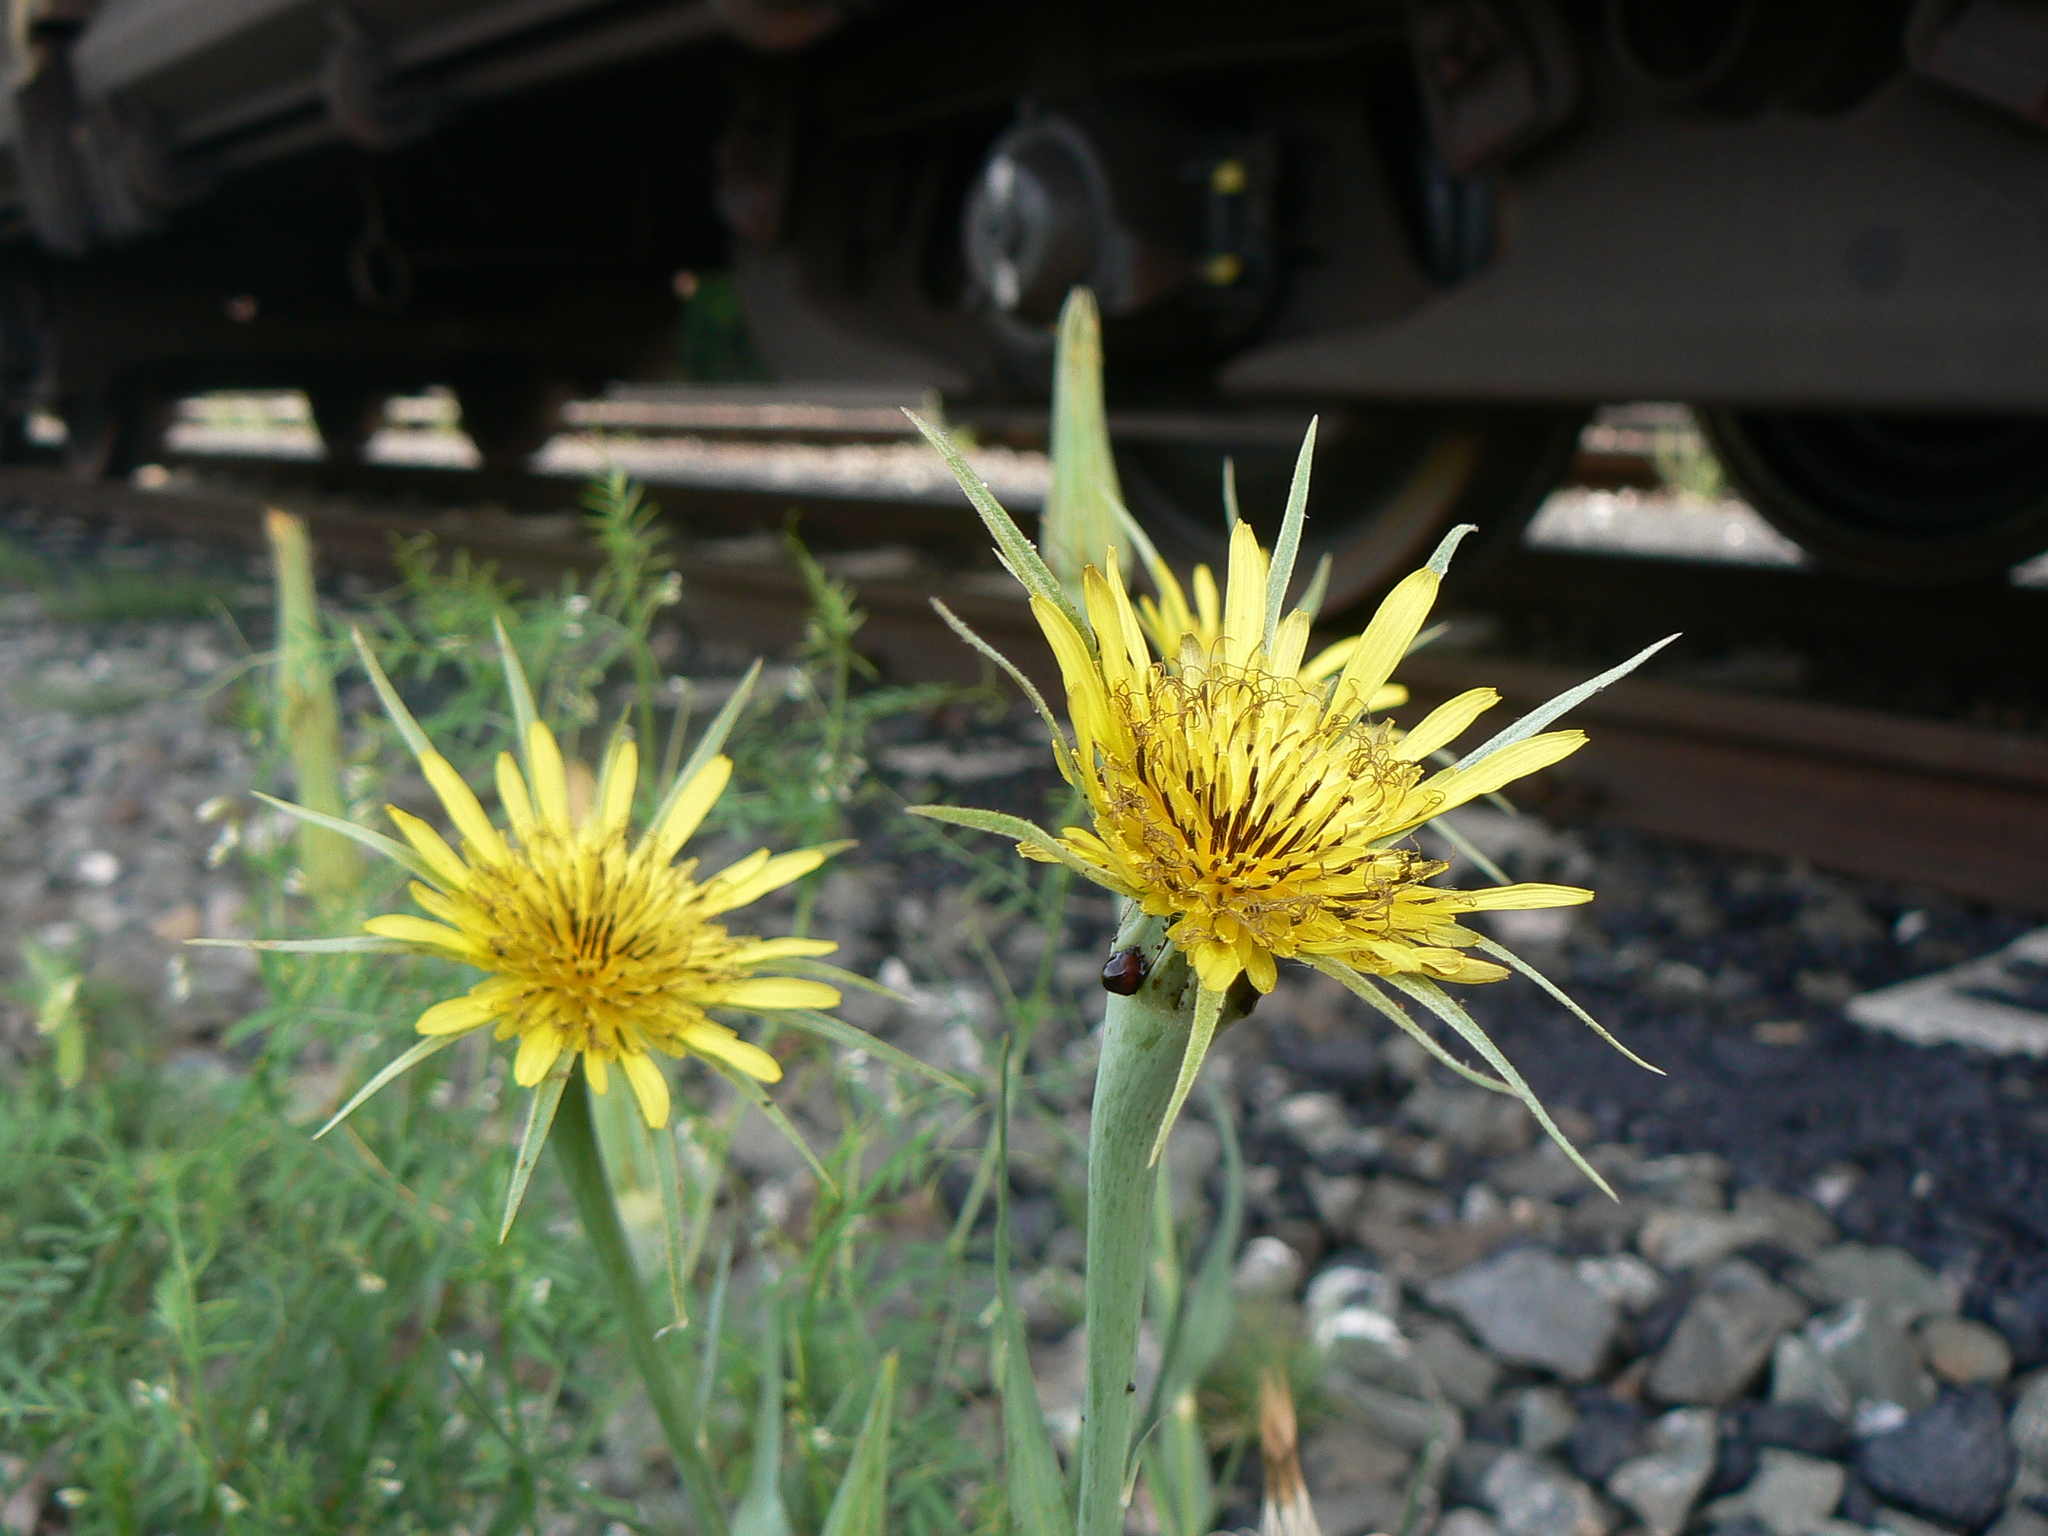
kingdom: Plantae
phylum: Tracheophyta
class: Magnoliopsida
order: Asterales
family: Asteraceae
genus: Tragopogon
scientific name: Tragopogon dubius
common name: Yellow salsify
